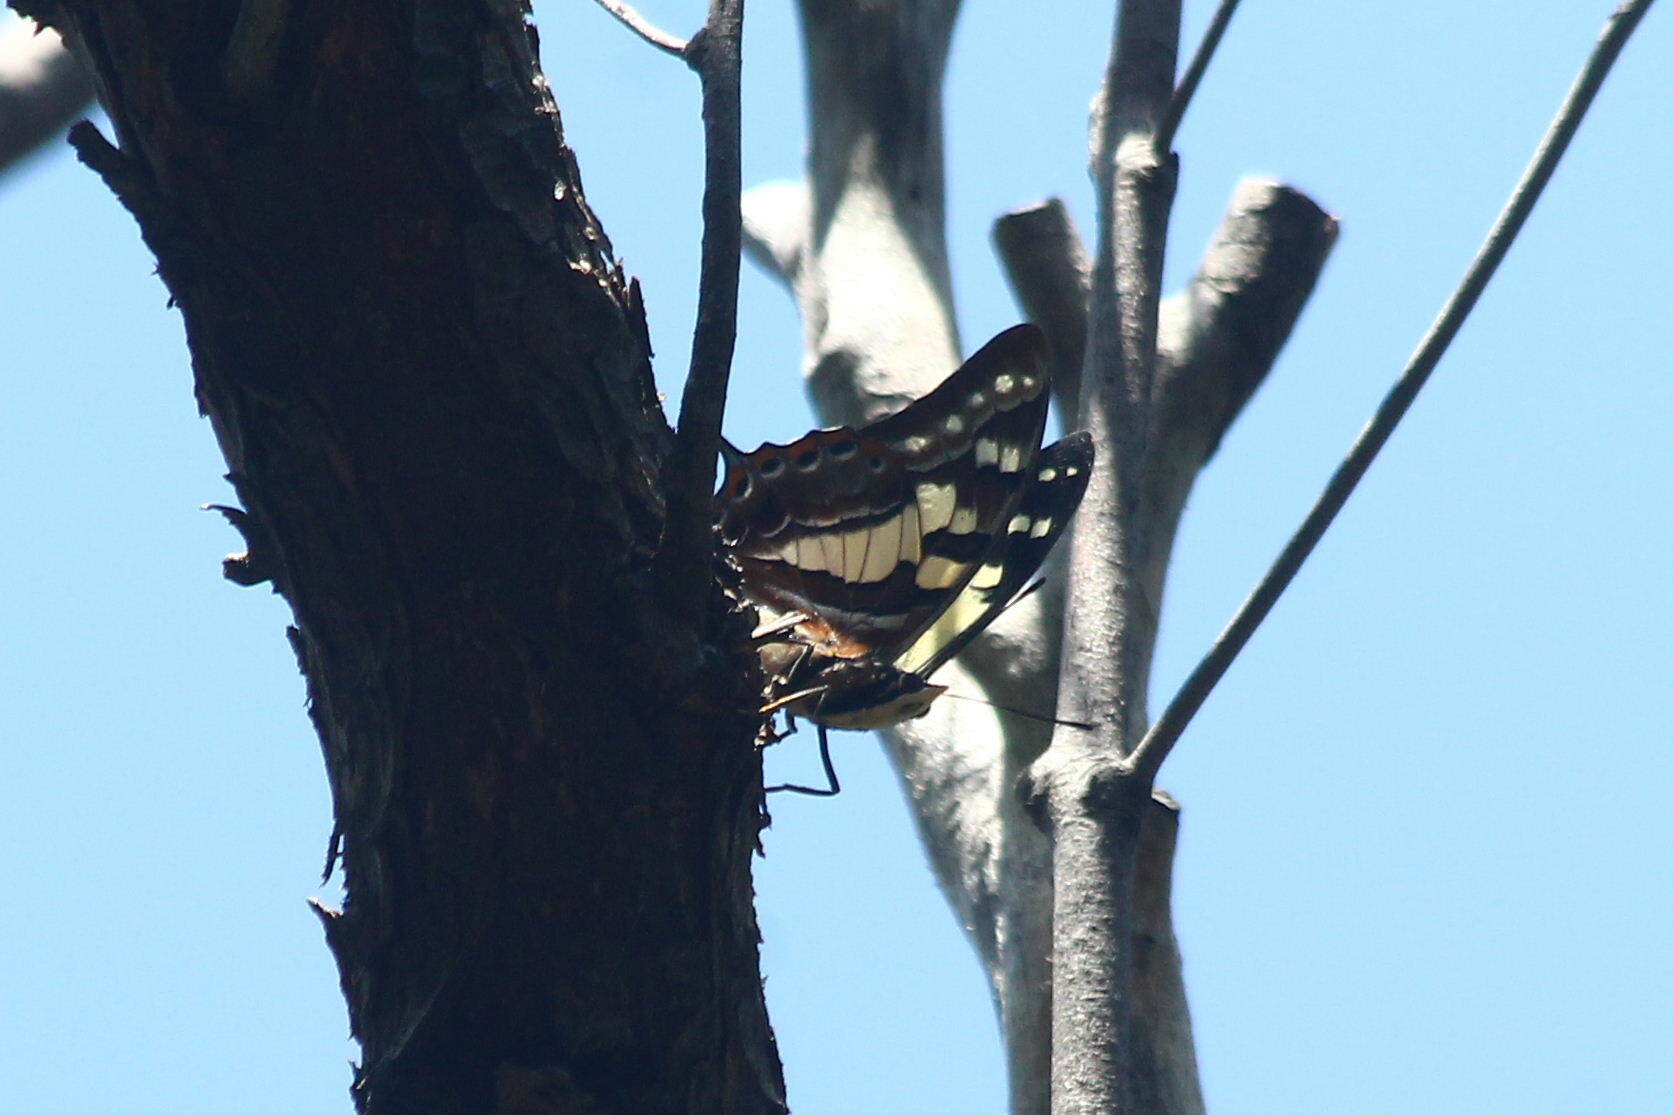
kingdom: Animalia
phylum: Arthropoda
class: Insecta
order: Lepidoptera
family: Nymphalidae
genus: Charaxes
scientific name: Charaxes
